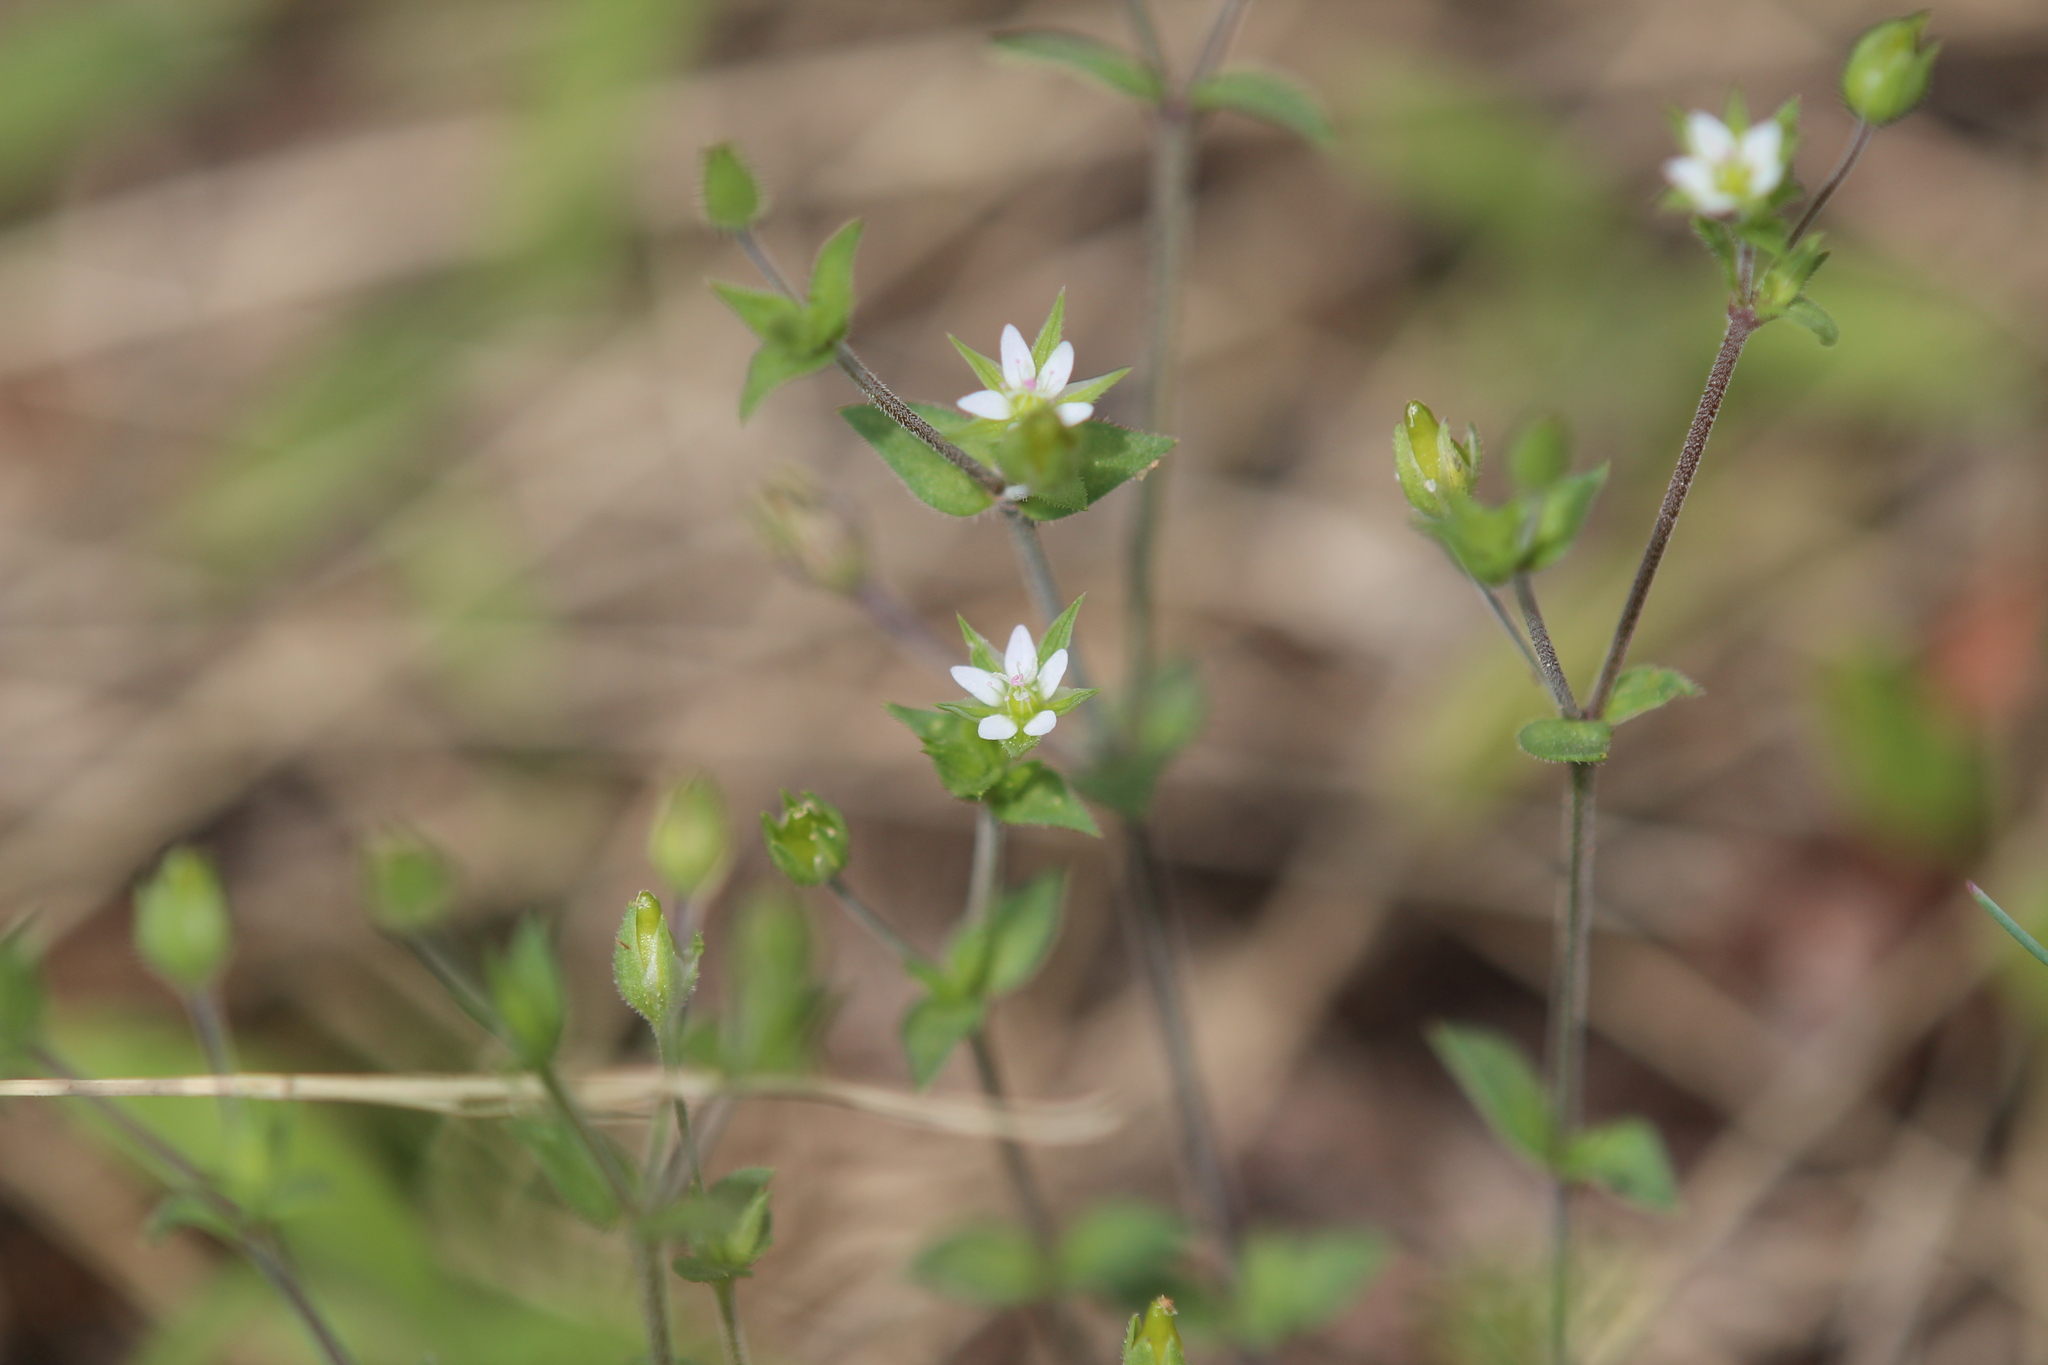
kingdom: Plantae
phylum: Tracheophyta
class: Magnoliopsida
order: Caryophyllales
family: Caryophyllaceae
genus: Arenaria
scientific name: Arenaria serpyllifolia
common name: Thyme-leaved sandwort
